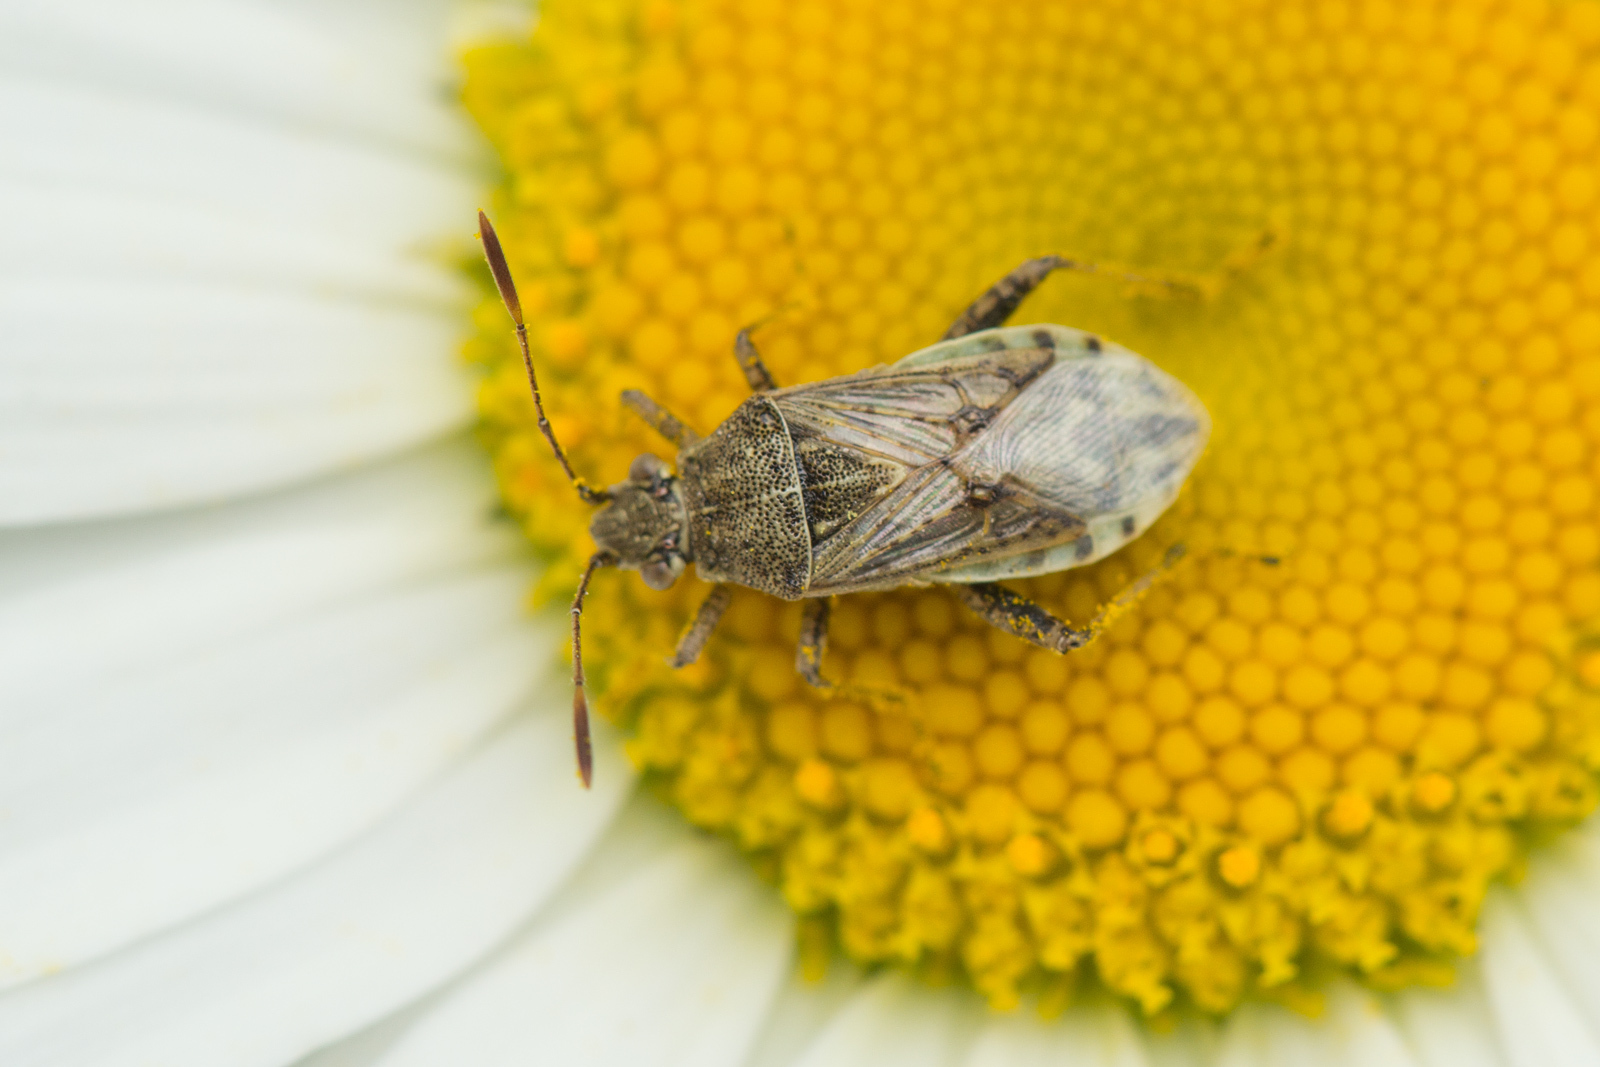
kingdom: Animalia
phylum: Arthropoda
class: Insecta
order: Hemiptera
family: Rhopalidae
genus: Stictopleurus
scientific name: Stictopleurus punctatonervosus
